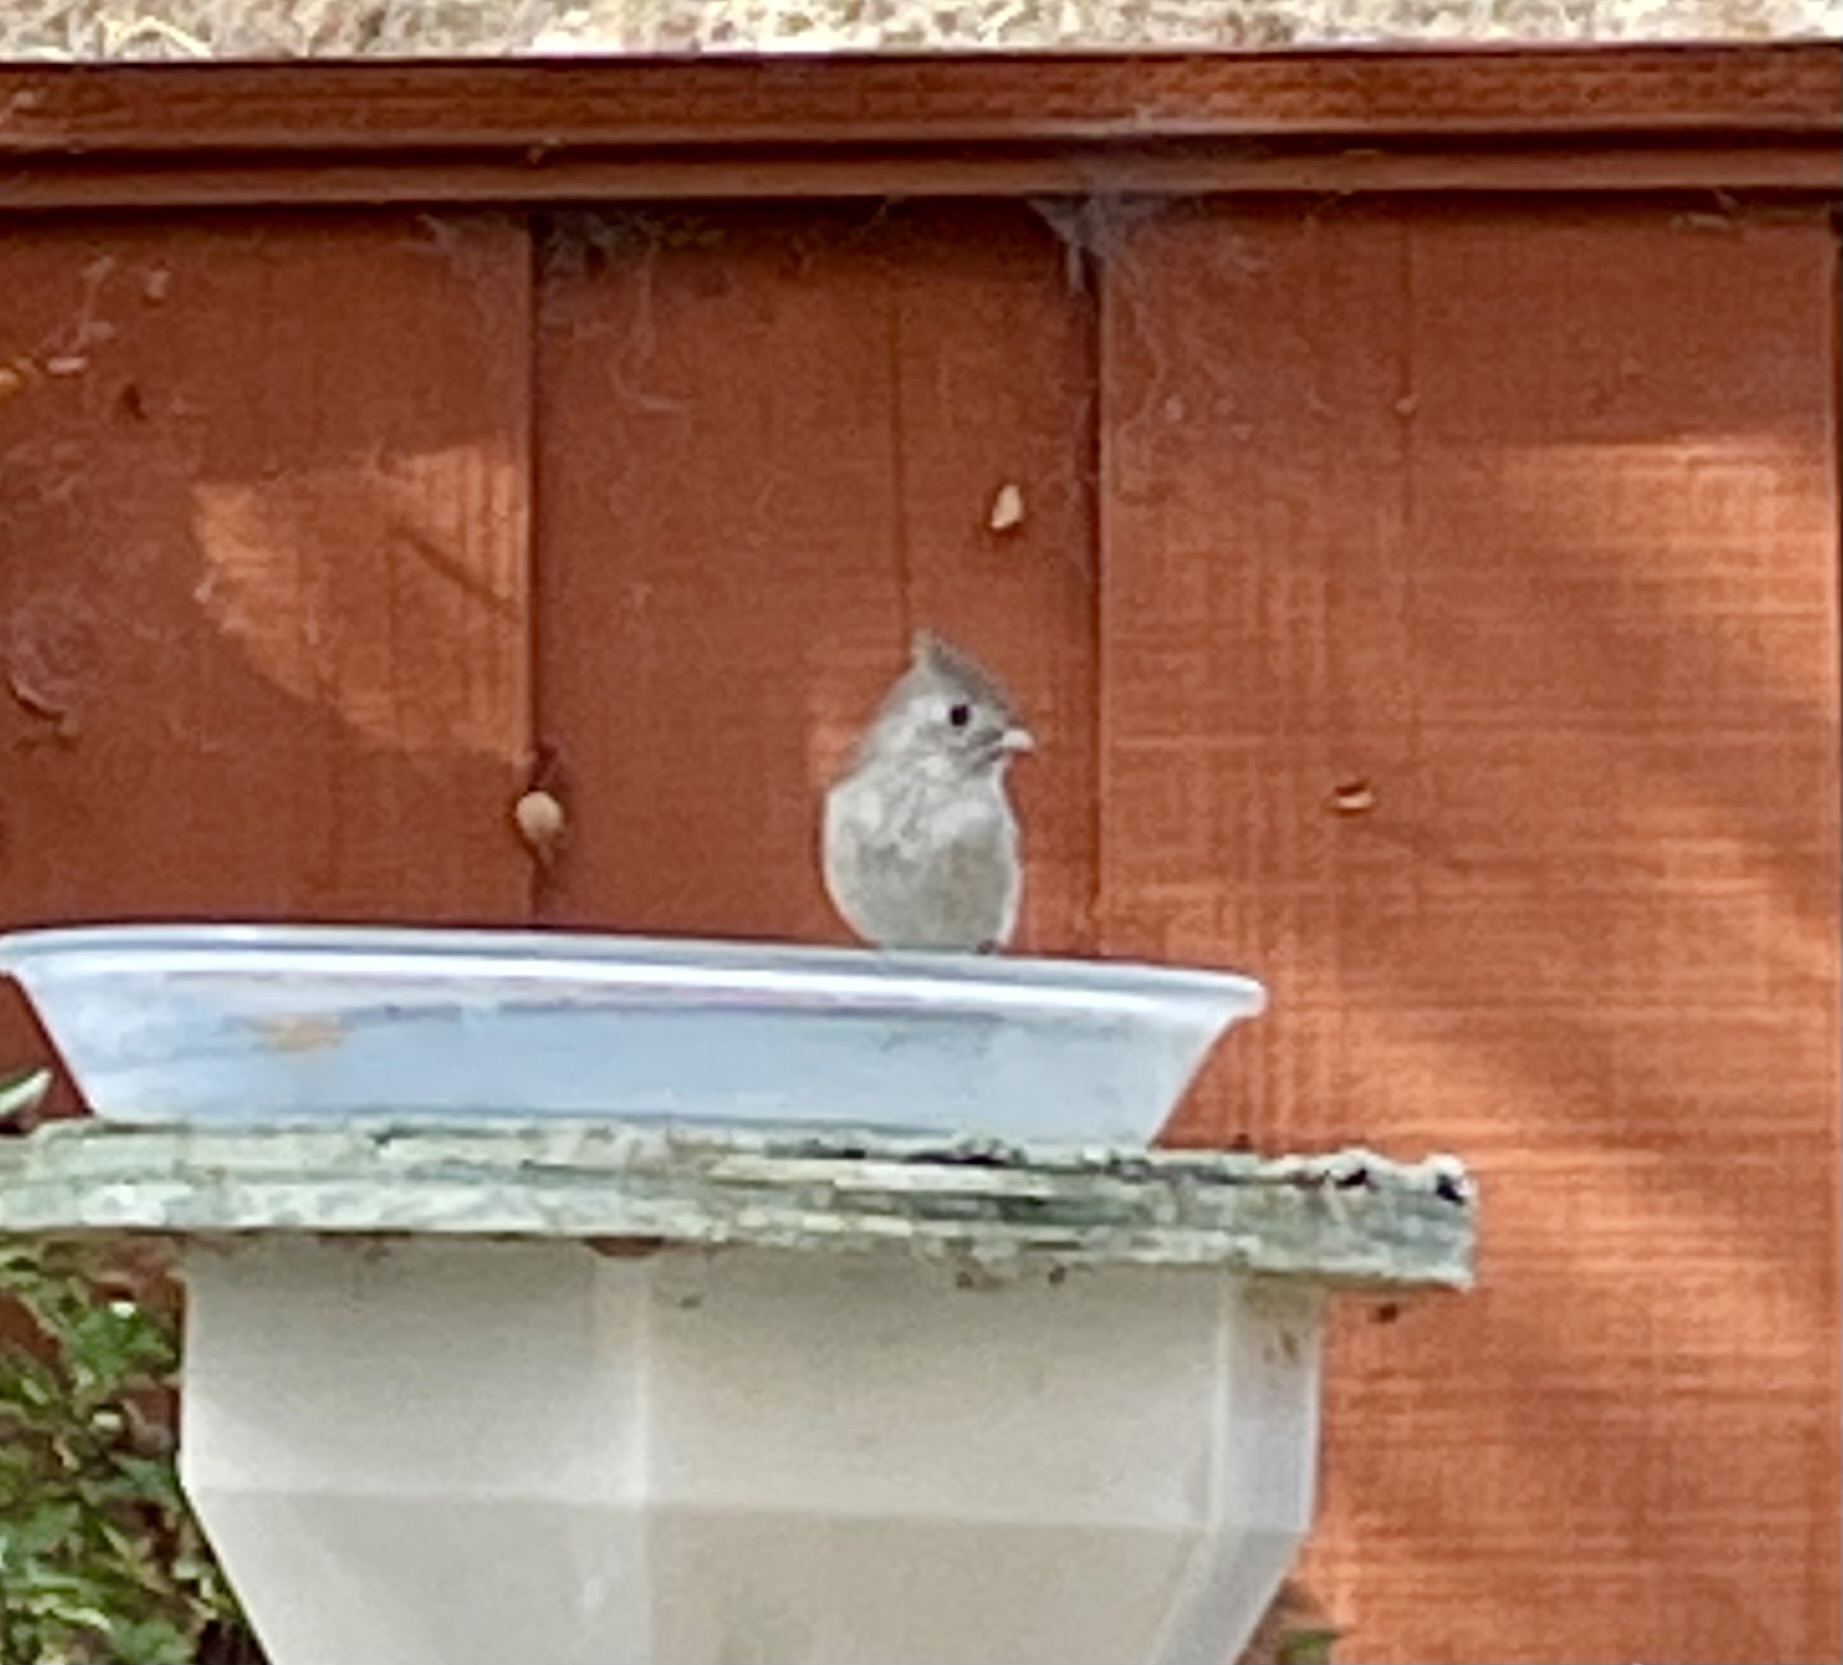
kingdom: Animalia
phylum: Chordata
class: Aves
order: Passeriformes
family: Paridae
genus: Baeolophus
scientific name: Baeolophus inornatus
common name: Oak titmouse
